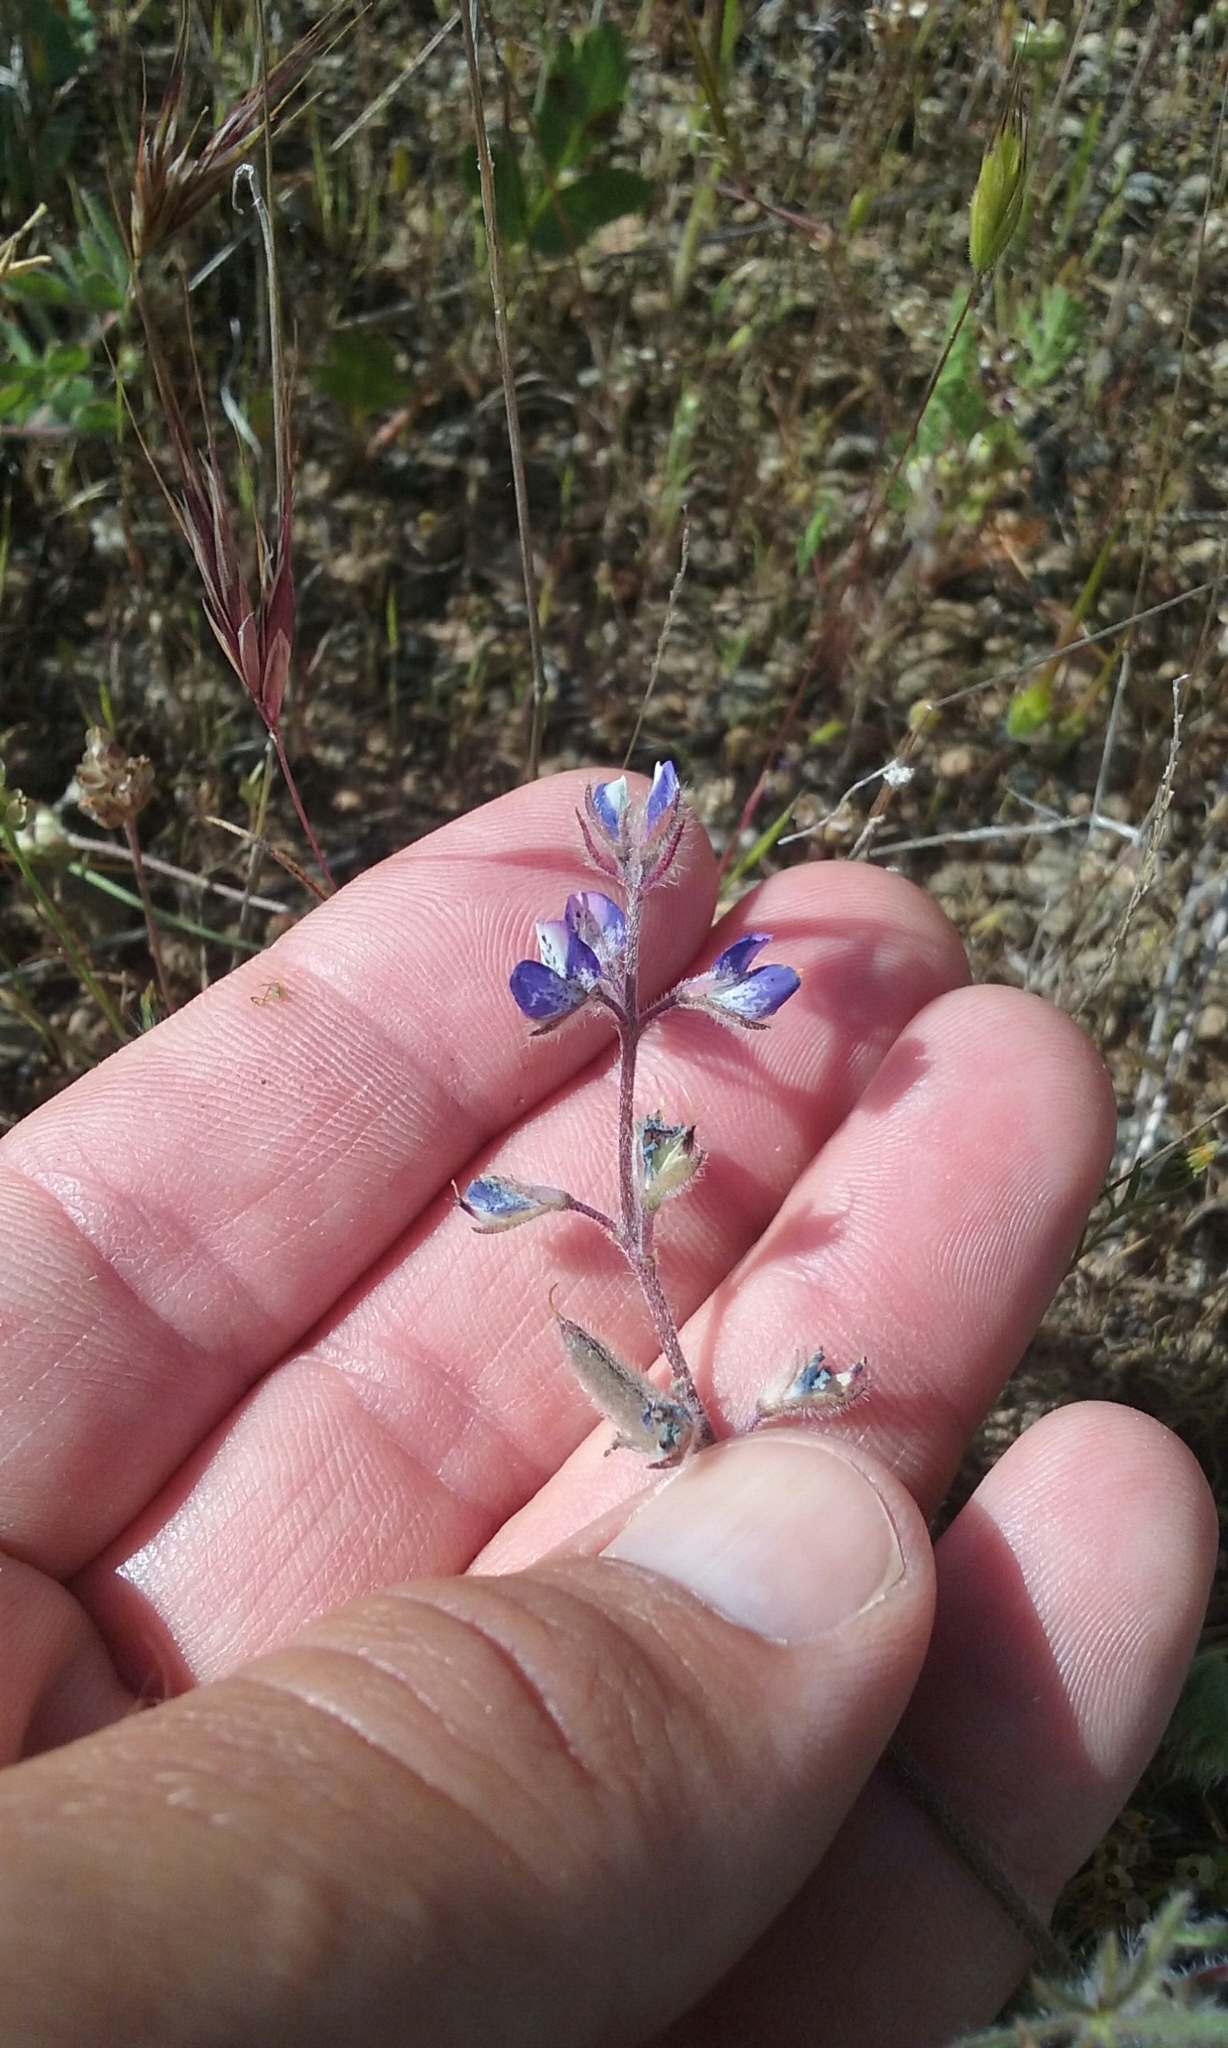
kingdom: Plantae
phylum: Tracheophyta
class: Magnoliopsida
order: Fabales
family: Fabaceae
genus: Lupinus
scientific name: Lupinus bicolor
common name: Miniature lupine
